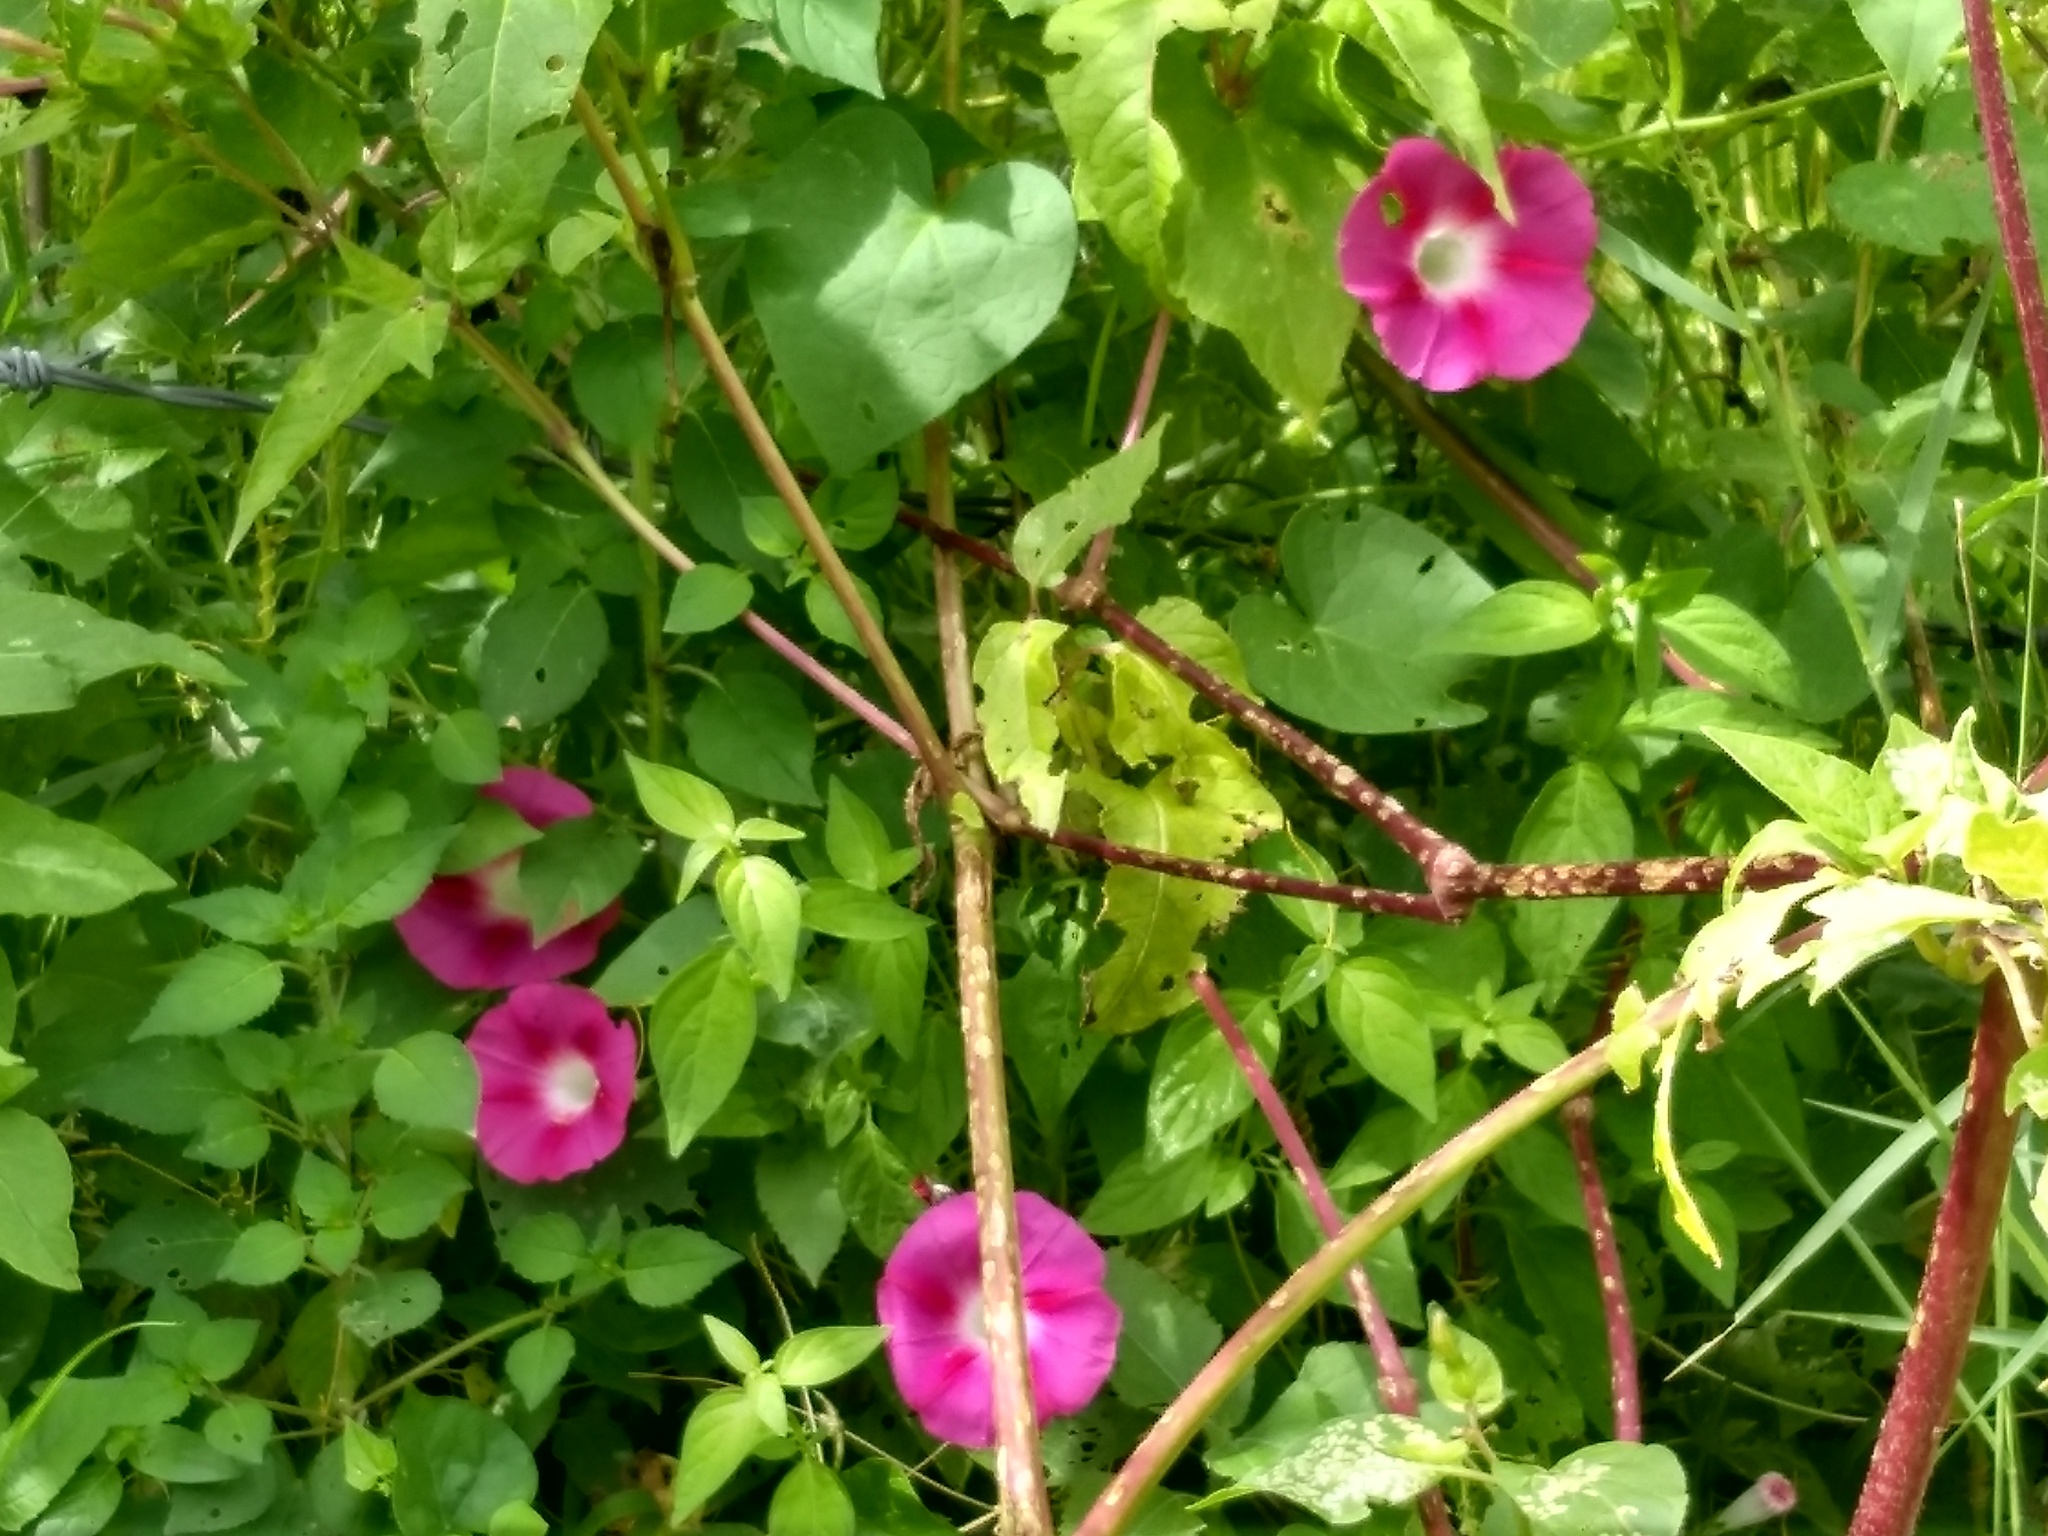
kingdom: Plantae
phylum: Tracheophyta
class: Magnoliopsida
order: Solanales
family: Convolvulaceae
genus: Ipomoea
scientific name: Ipomoea purpurea
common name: Common morning-glory
